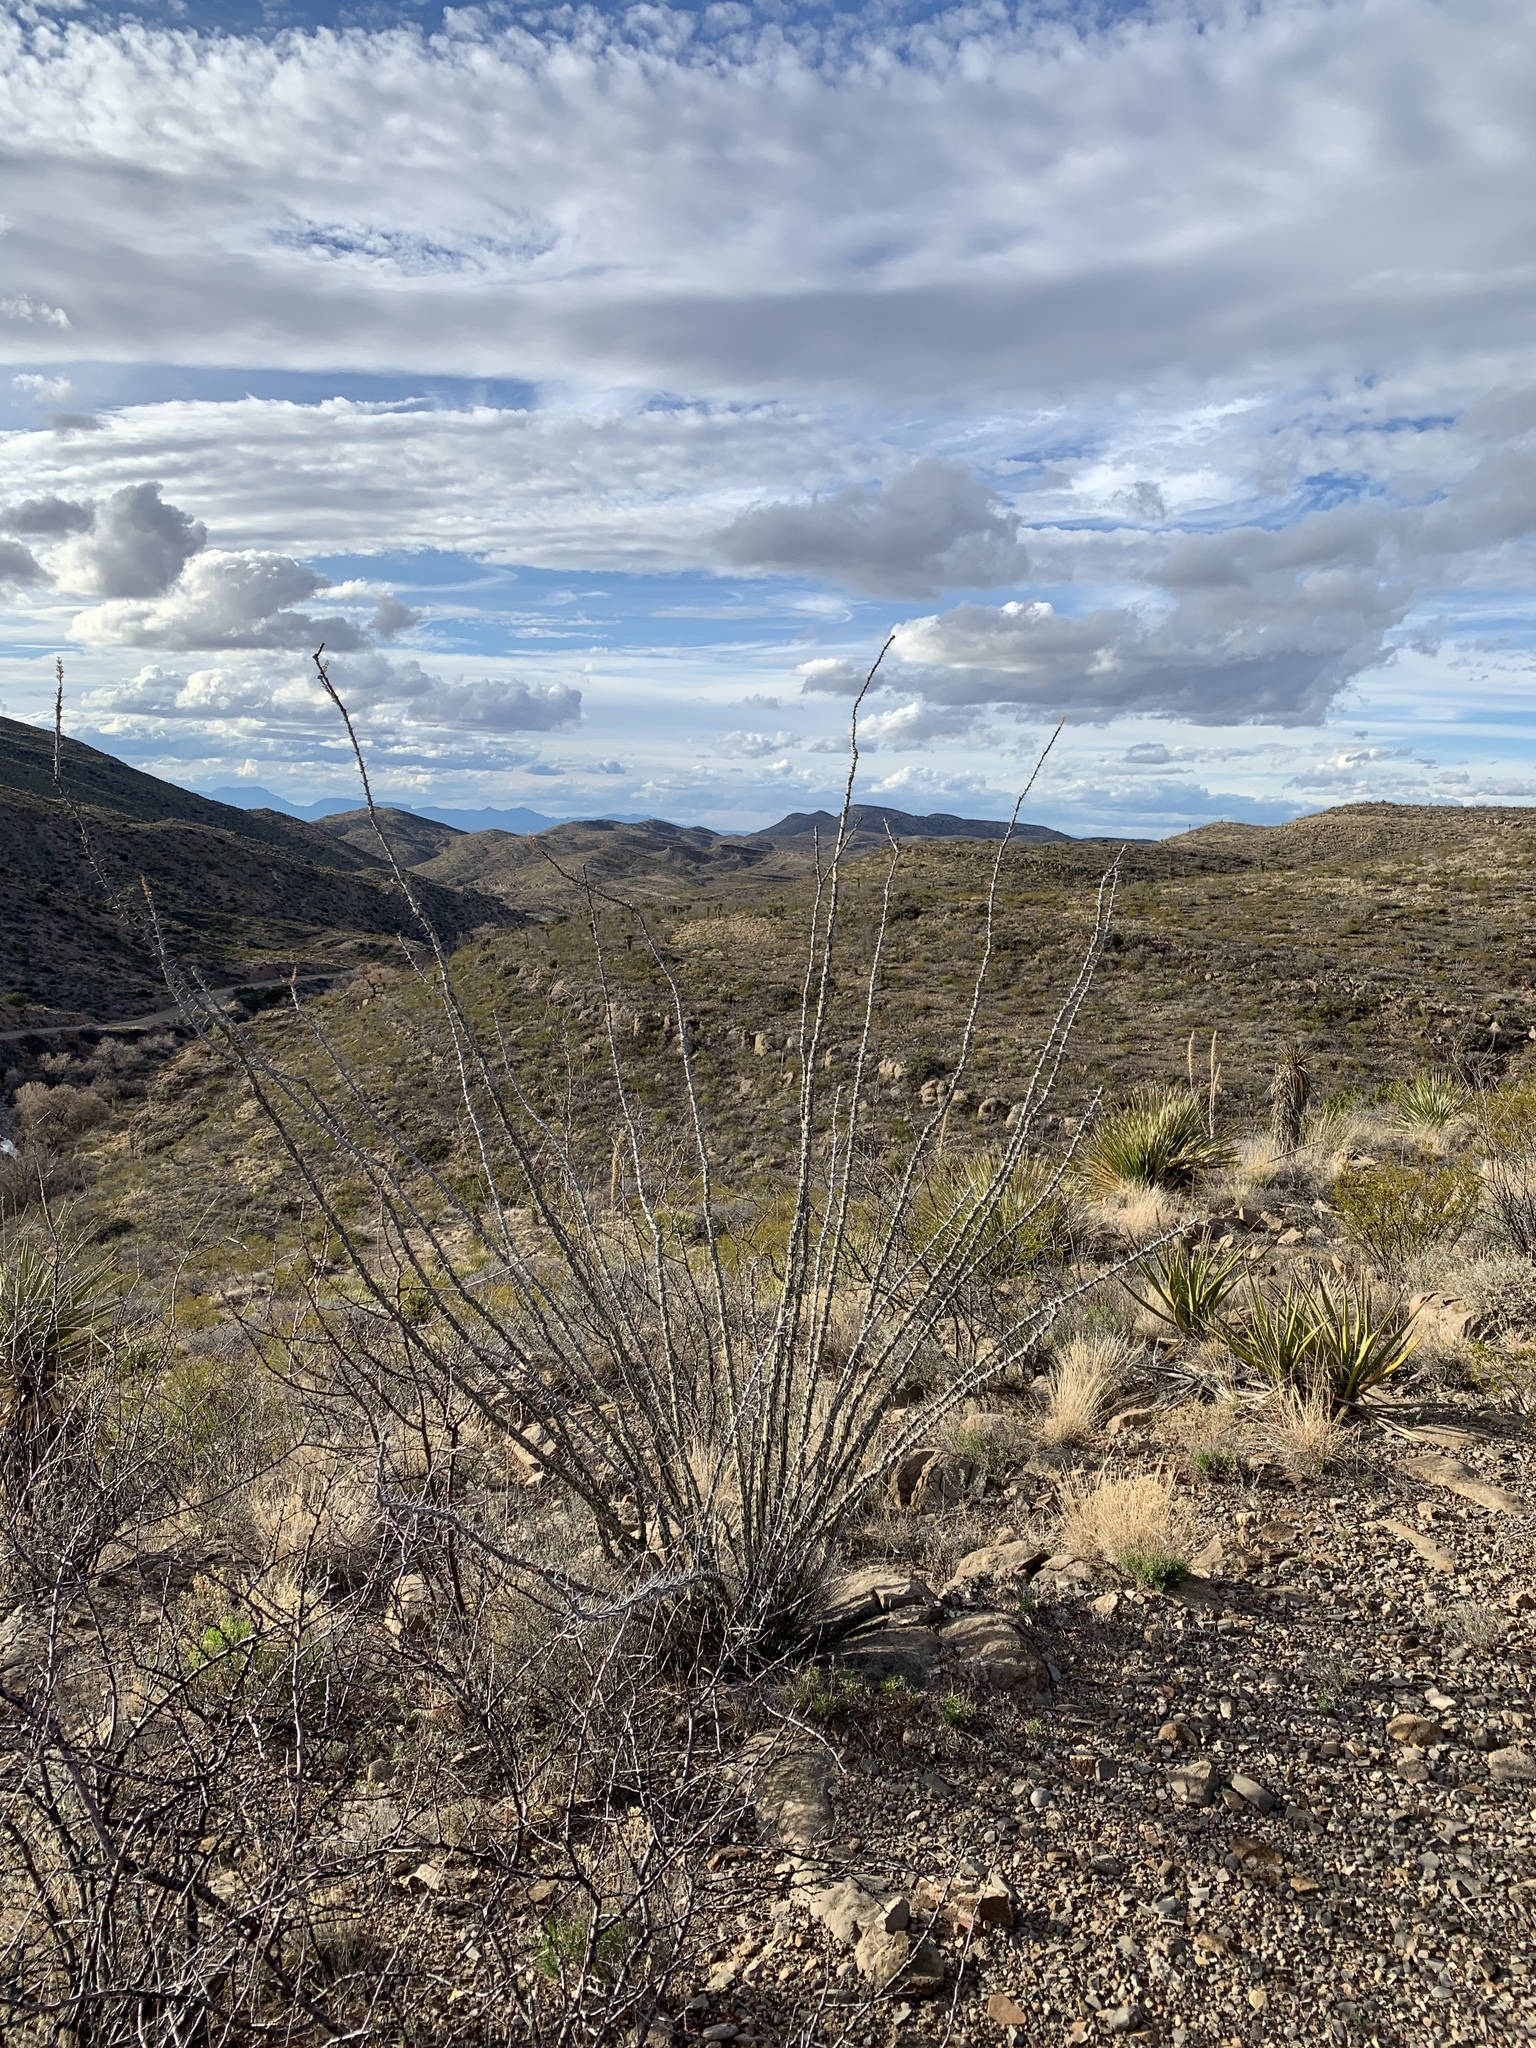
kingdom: Plantae
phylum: Tracheophyta
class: Magnoliopsida
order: Ericales
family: Fouquieriaceae
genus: Fouquieria
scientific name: Fouquieria splendens
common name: Vine-cactus
